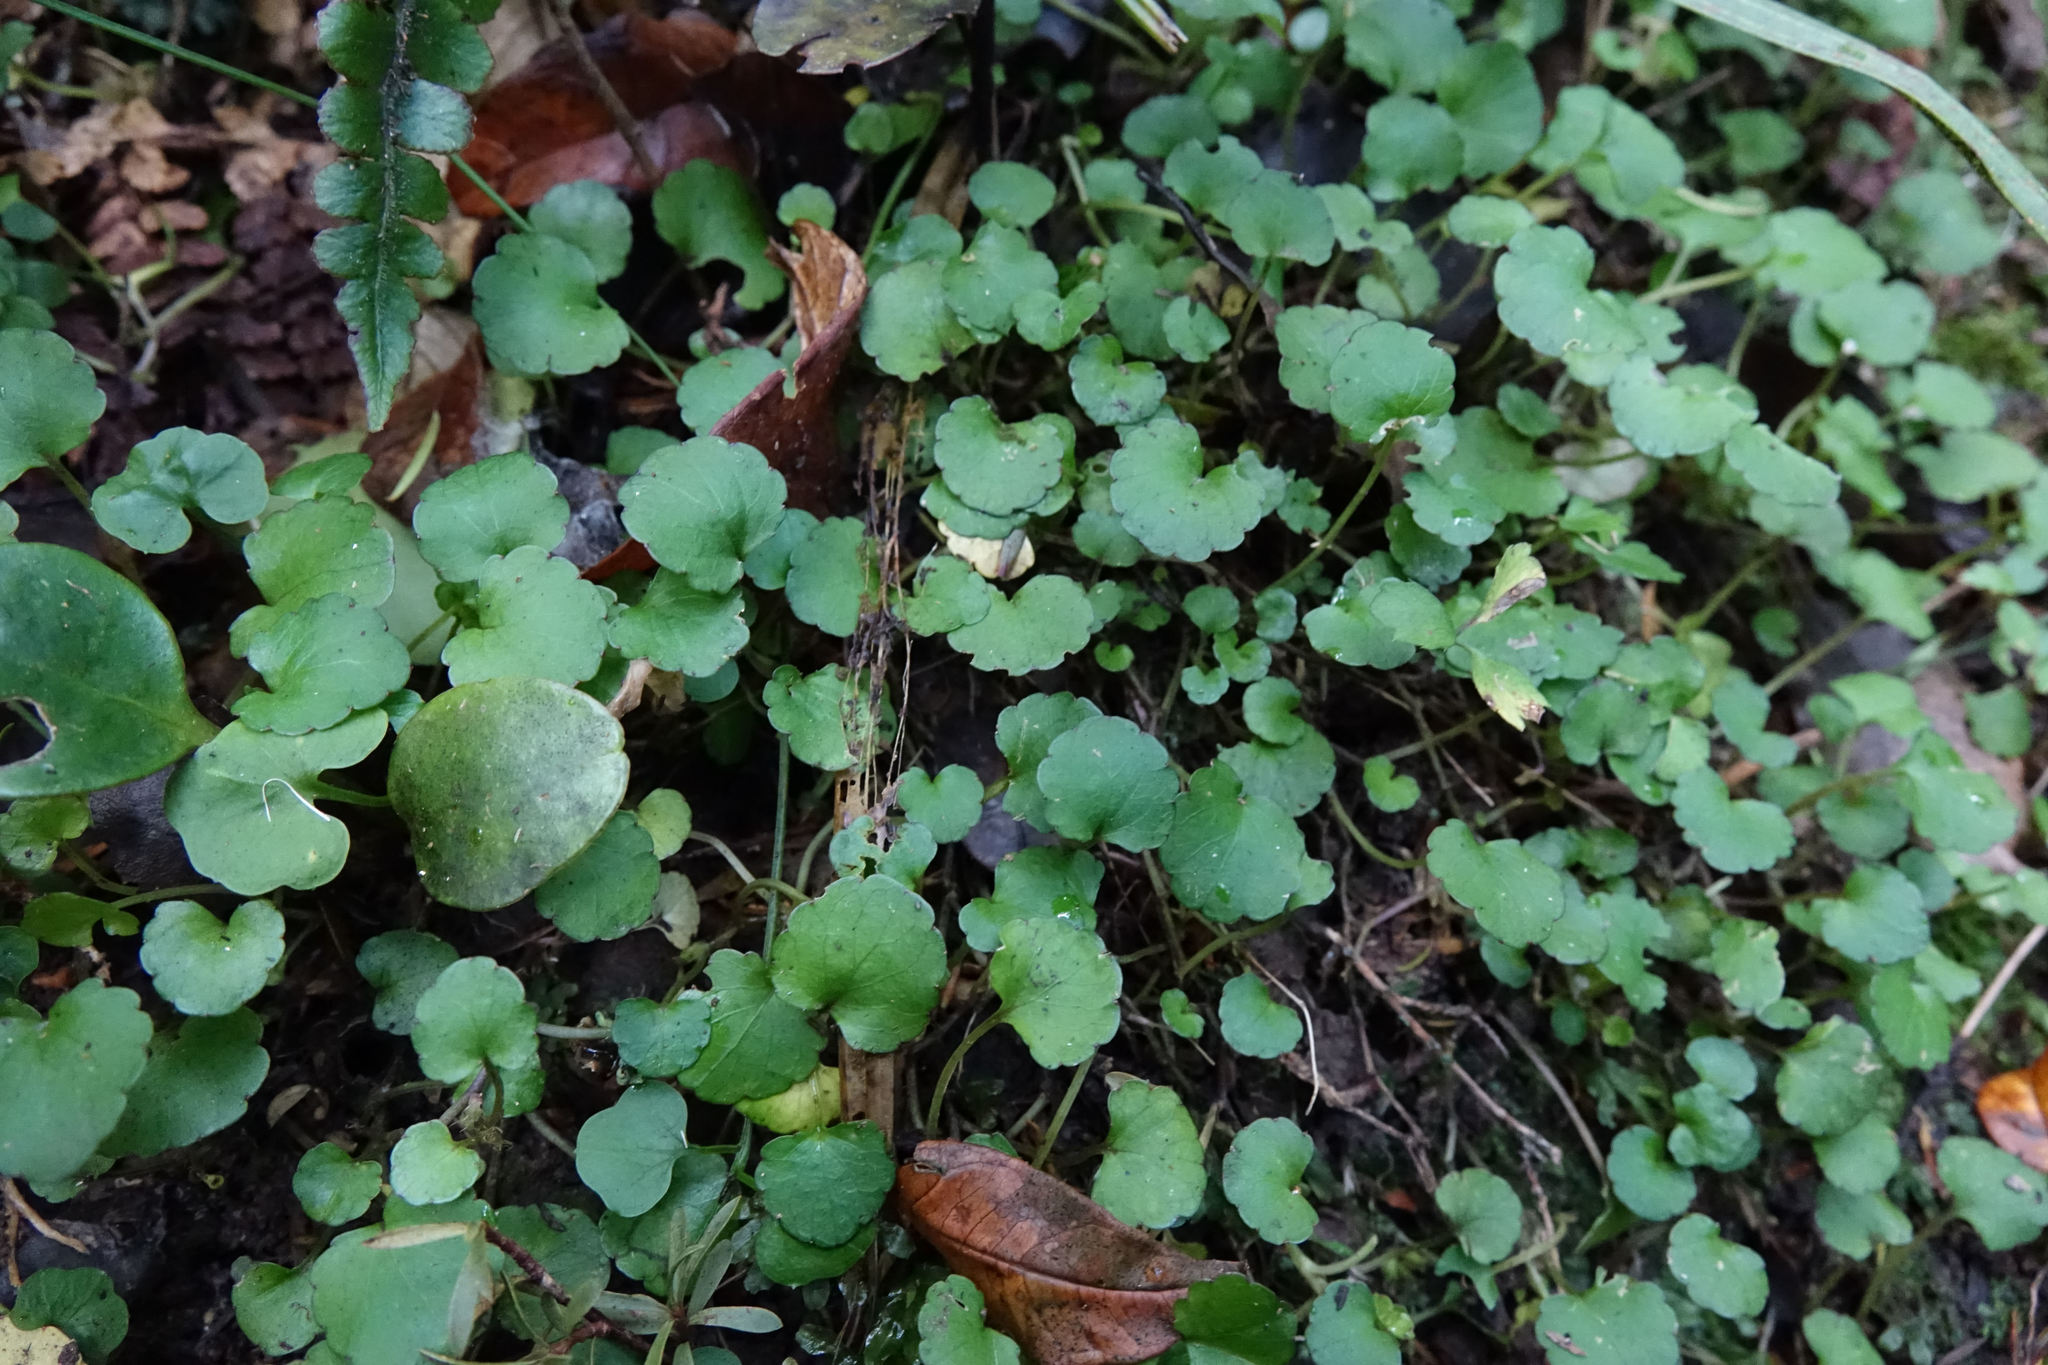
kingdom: Plantae
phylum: Tracheophyta
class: Magnoliopsida
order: Malpighiales
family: Violaceae
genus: Viola
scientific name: Viola filicaulis
